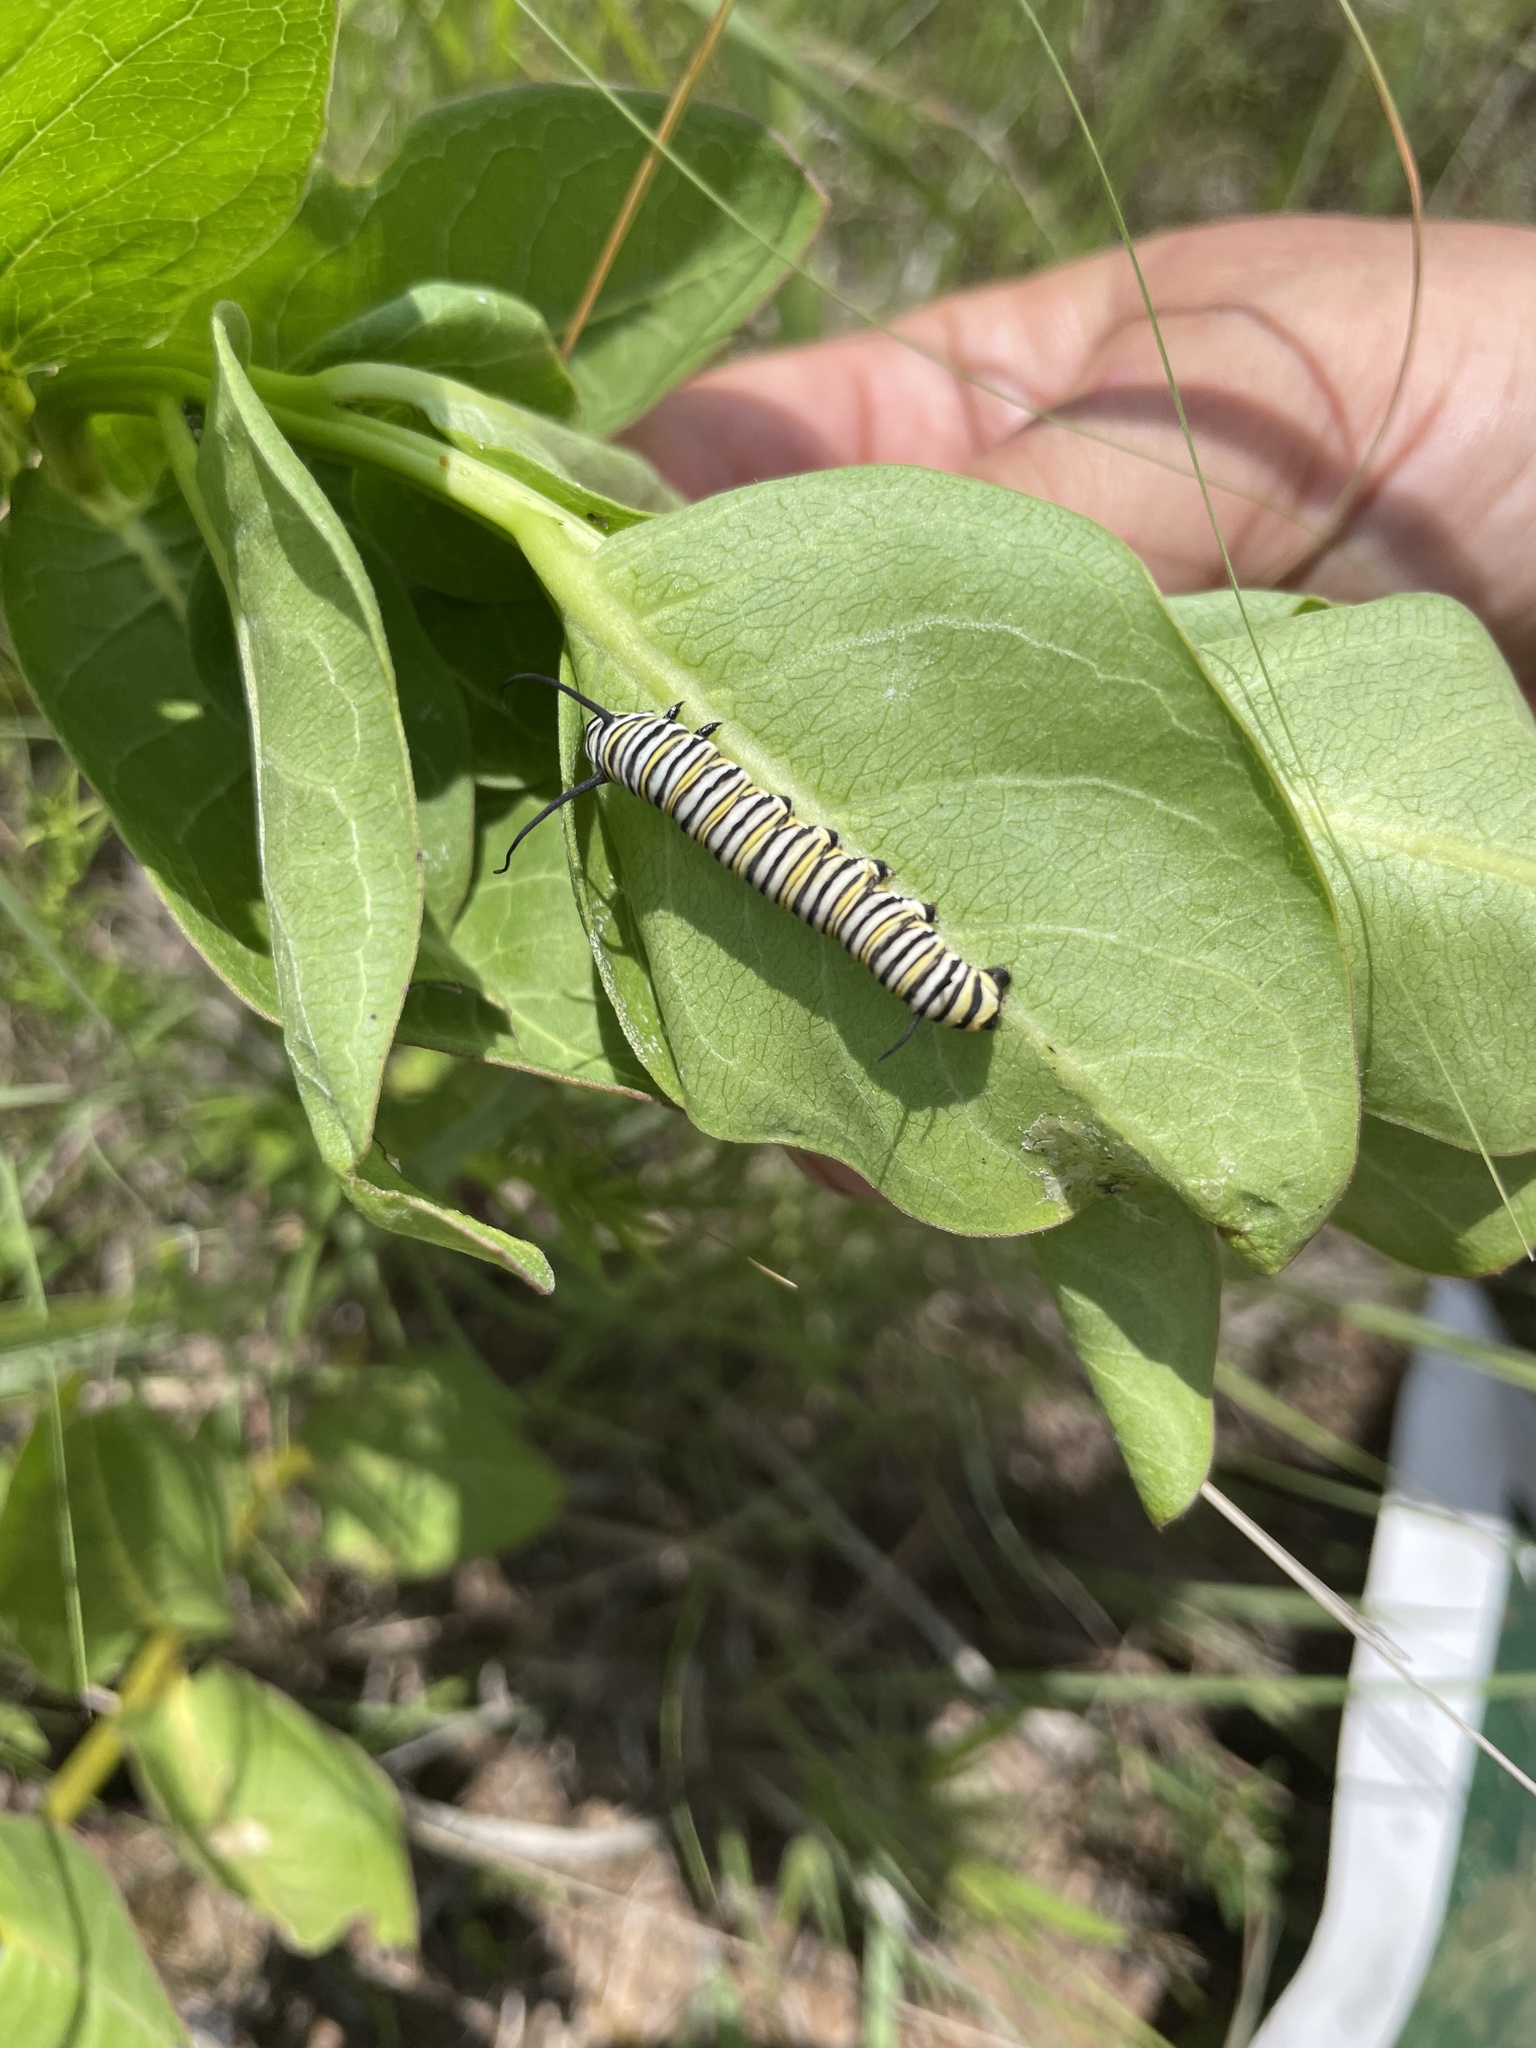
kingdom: Animalia
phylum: Arthropoda
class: Insecta
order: Lepidoptera
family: Nymphalidae
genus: Danaus
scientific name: Danaus plexippus
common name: Monarch
